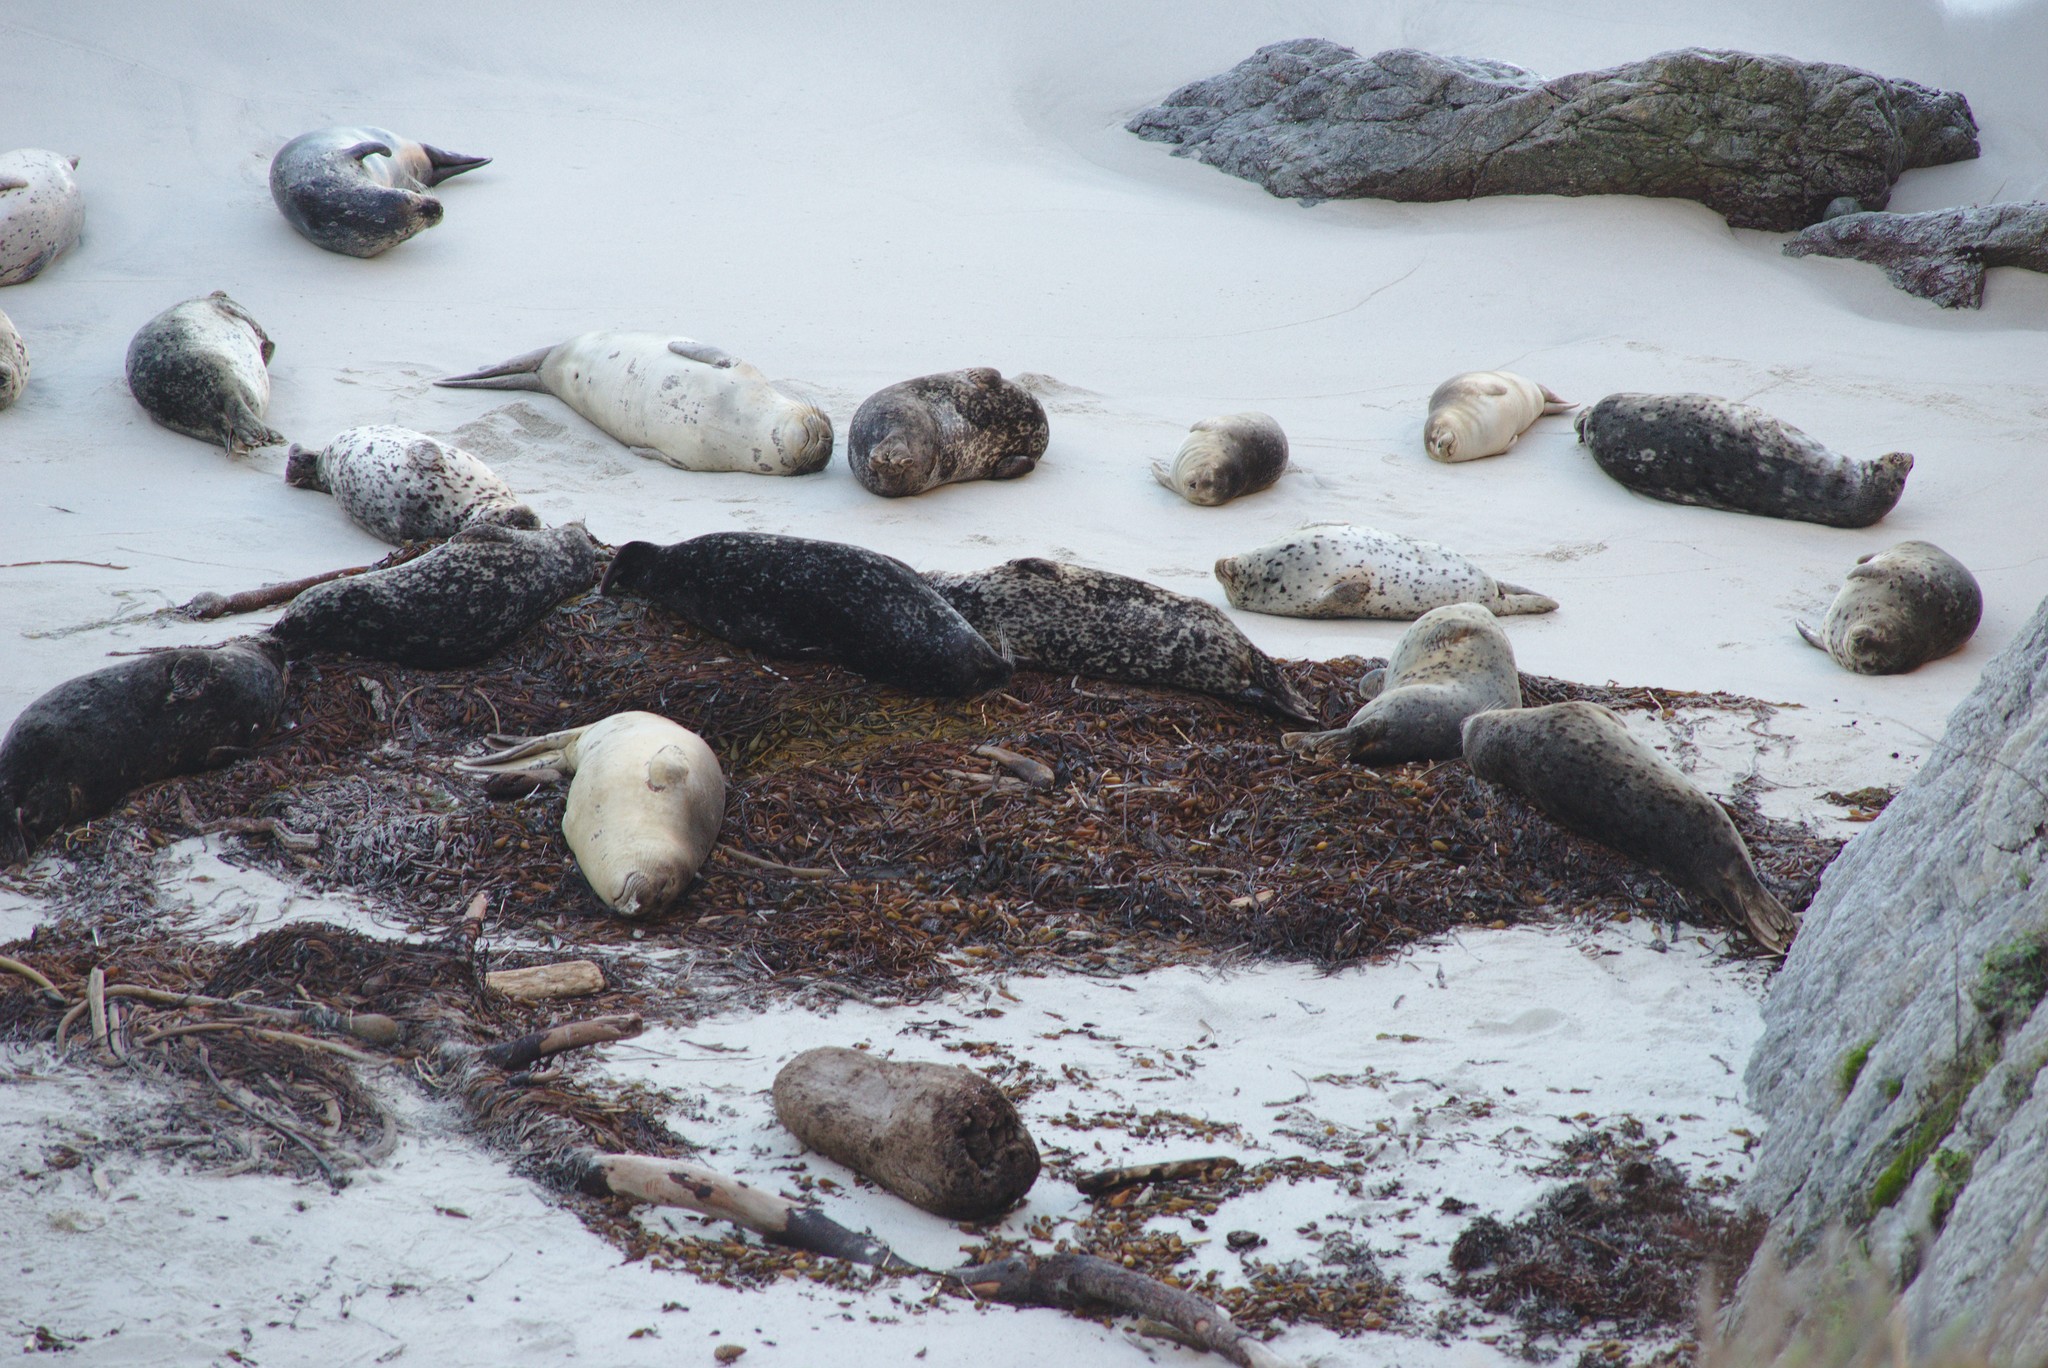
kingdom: Animalia
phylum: Chordata
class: Mammalia
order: Carnivora
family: Phocidae
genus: Phoca
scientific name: Phoca vitulina
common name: Harbor seal
